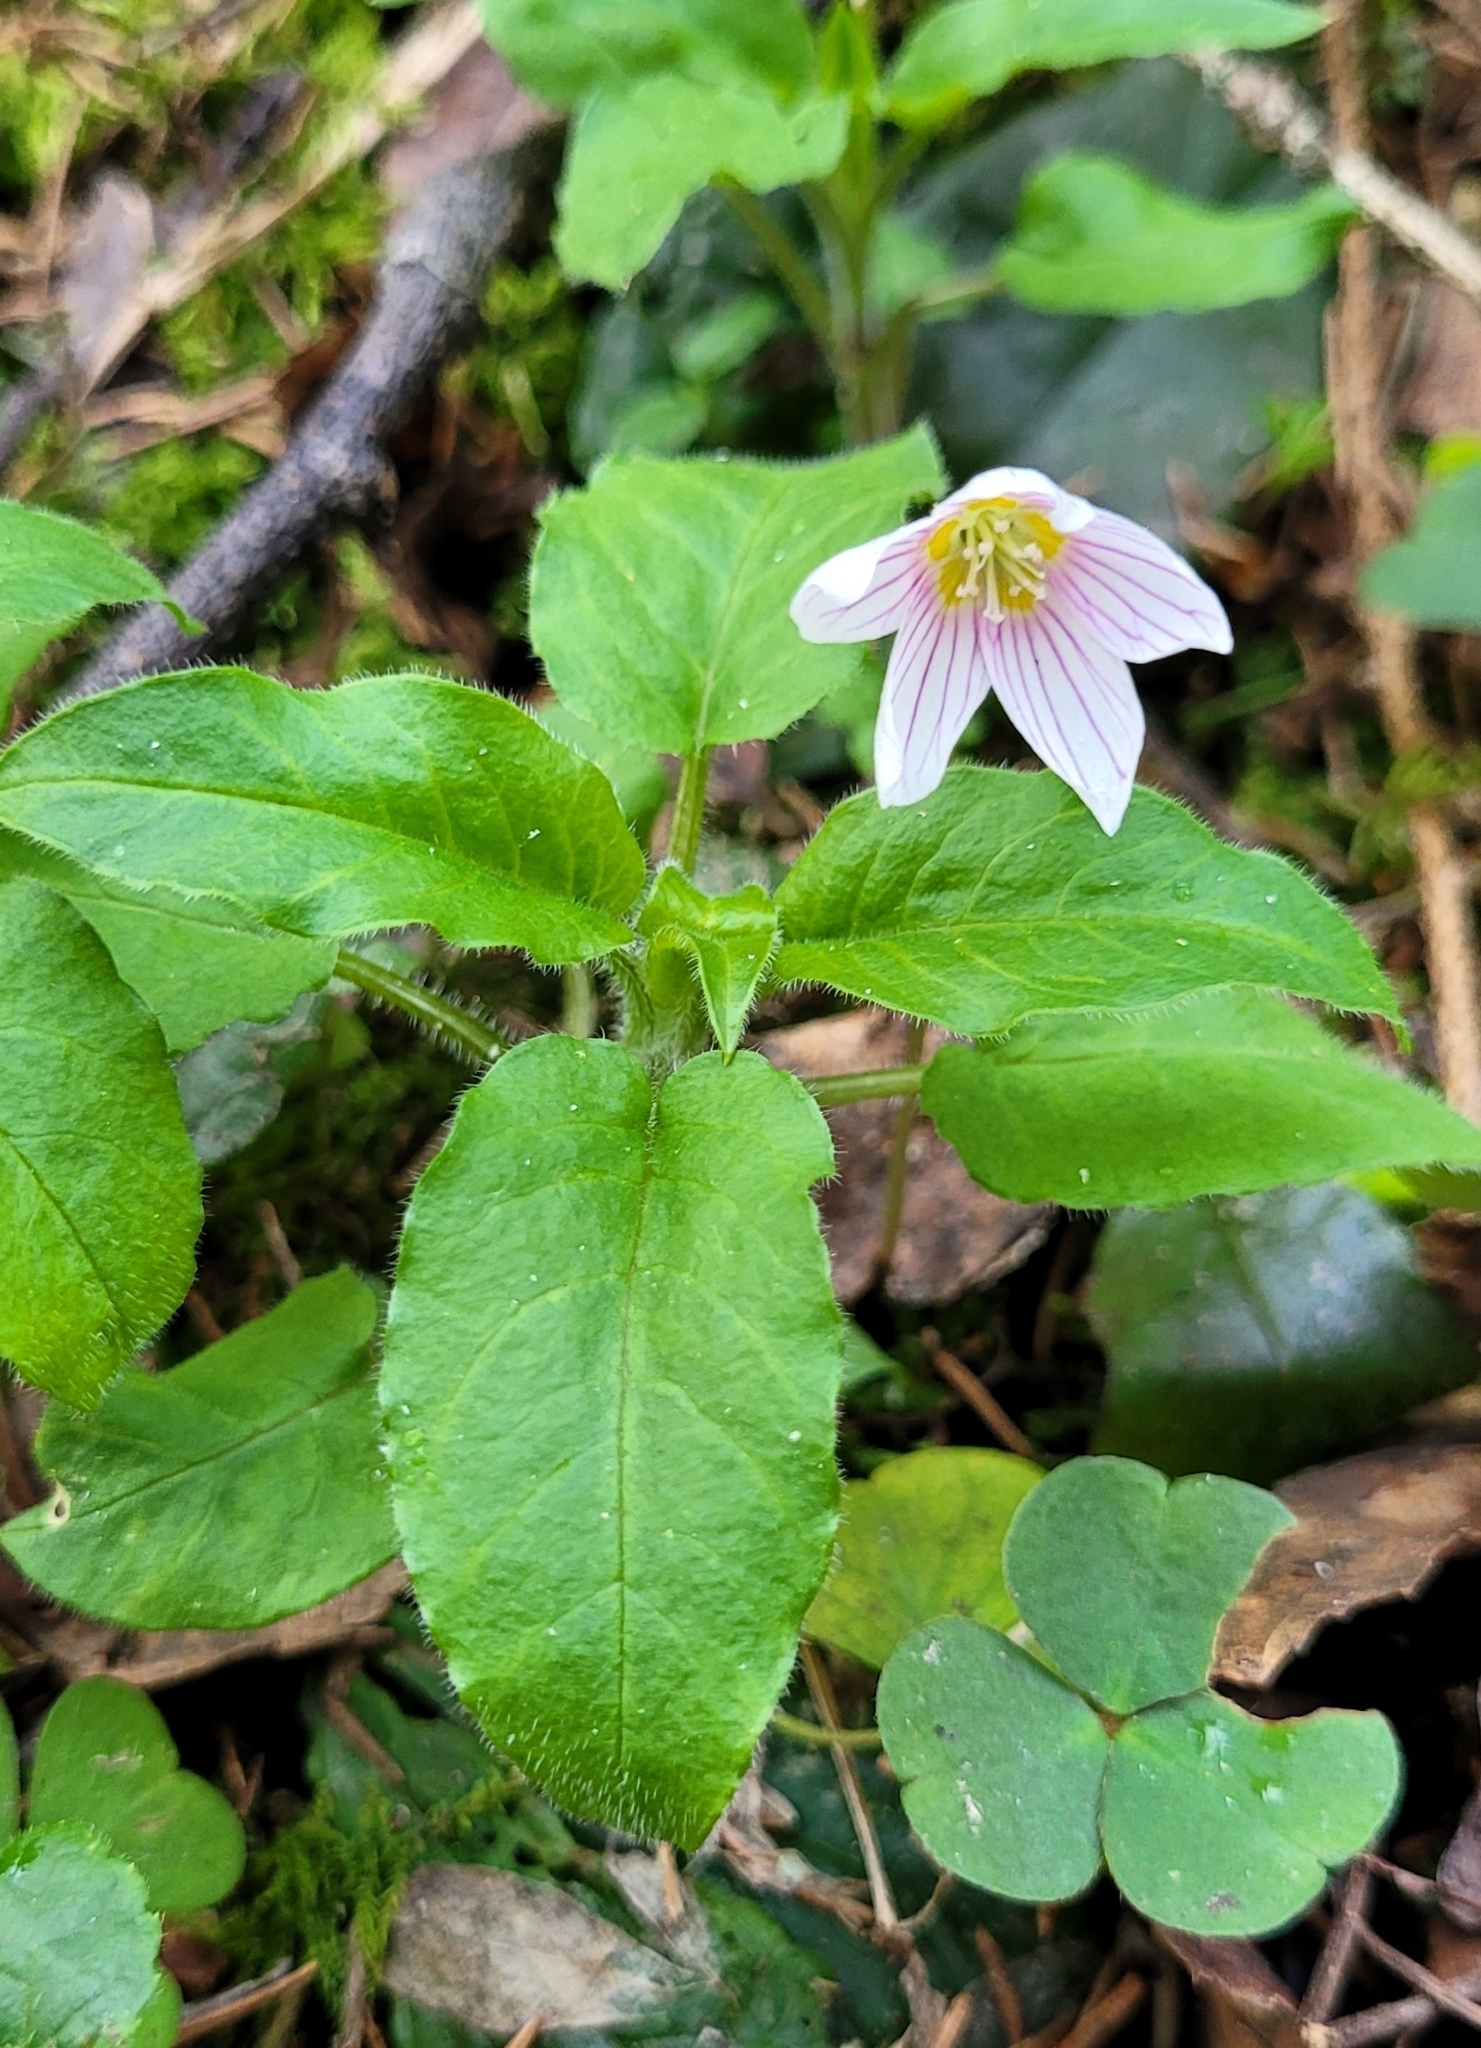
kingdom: Plantae
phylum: Tracheophyta
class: Magnoliopsida
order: Oxalidales
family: Oxalidaceae
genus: Oxalis
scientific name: Oxalis acetosella
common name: Wood-sorrel
